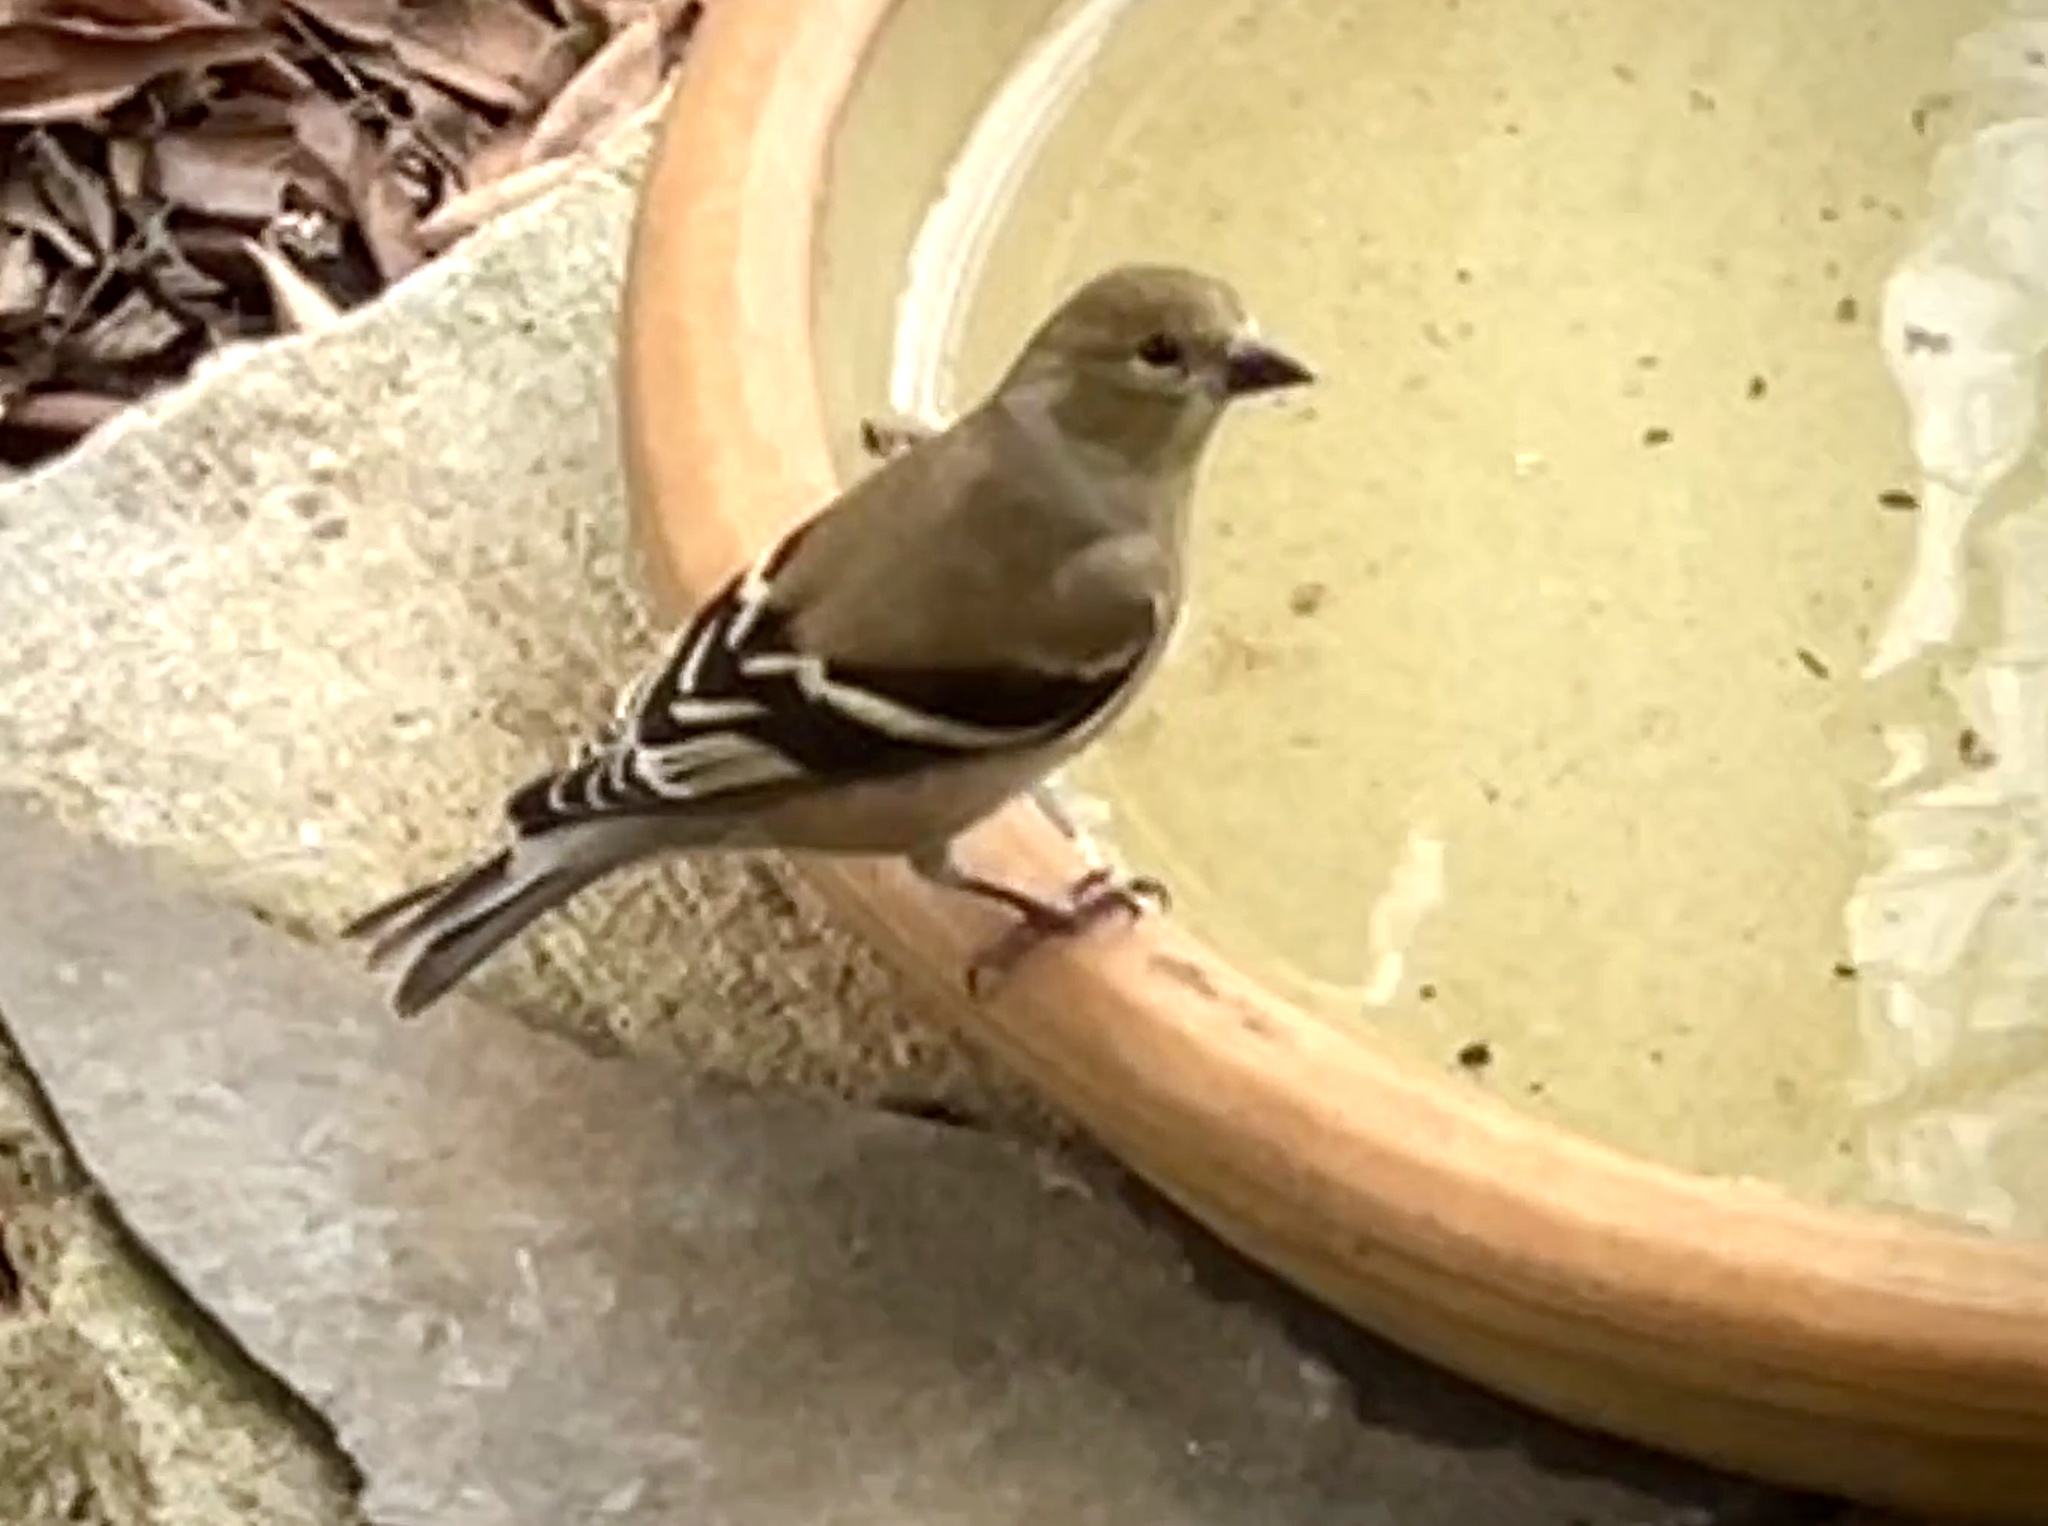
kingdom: Animalia
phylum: Chordata
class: Aves
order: Passeriformes
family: Fringillidae
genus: Spinus
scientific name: Spinus tristis
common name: American goldfinch
